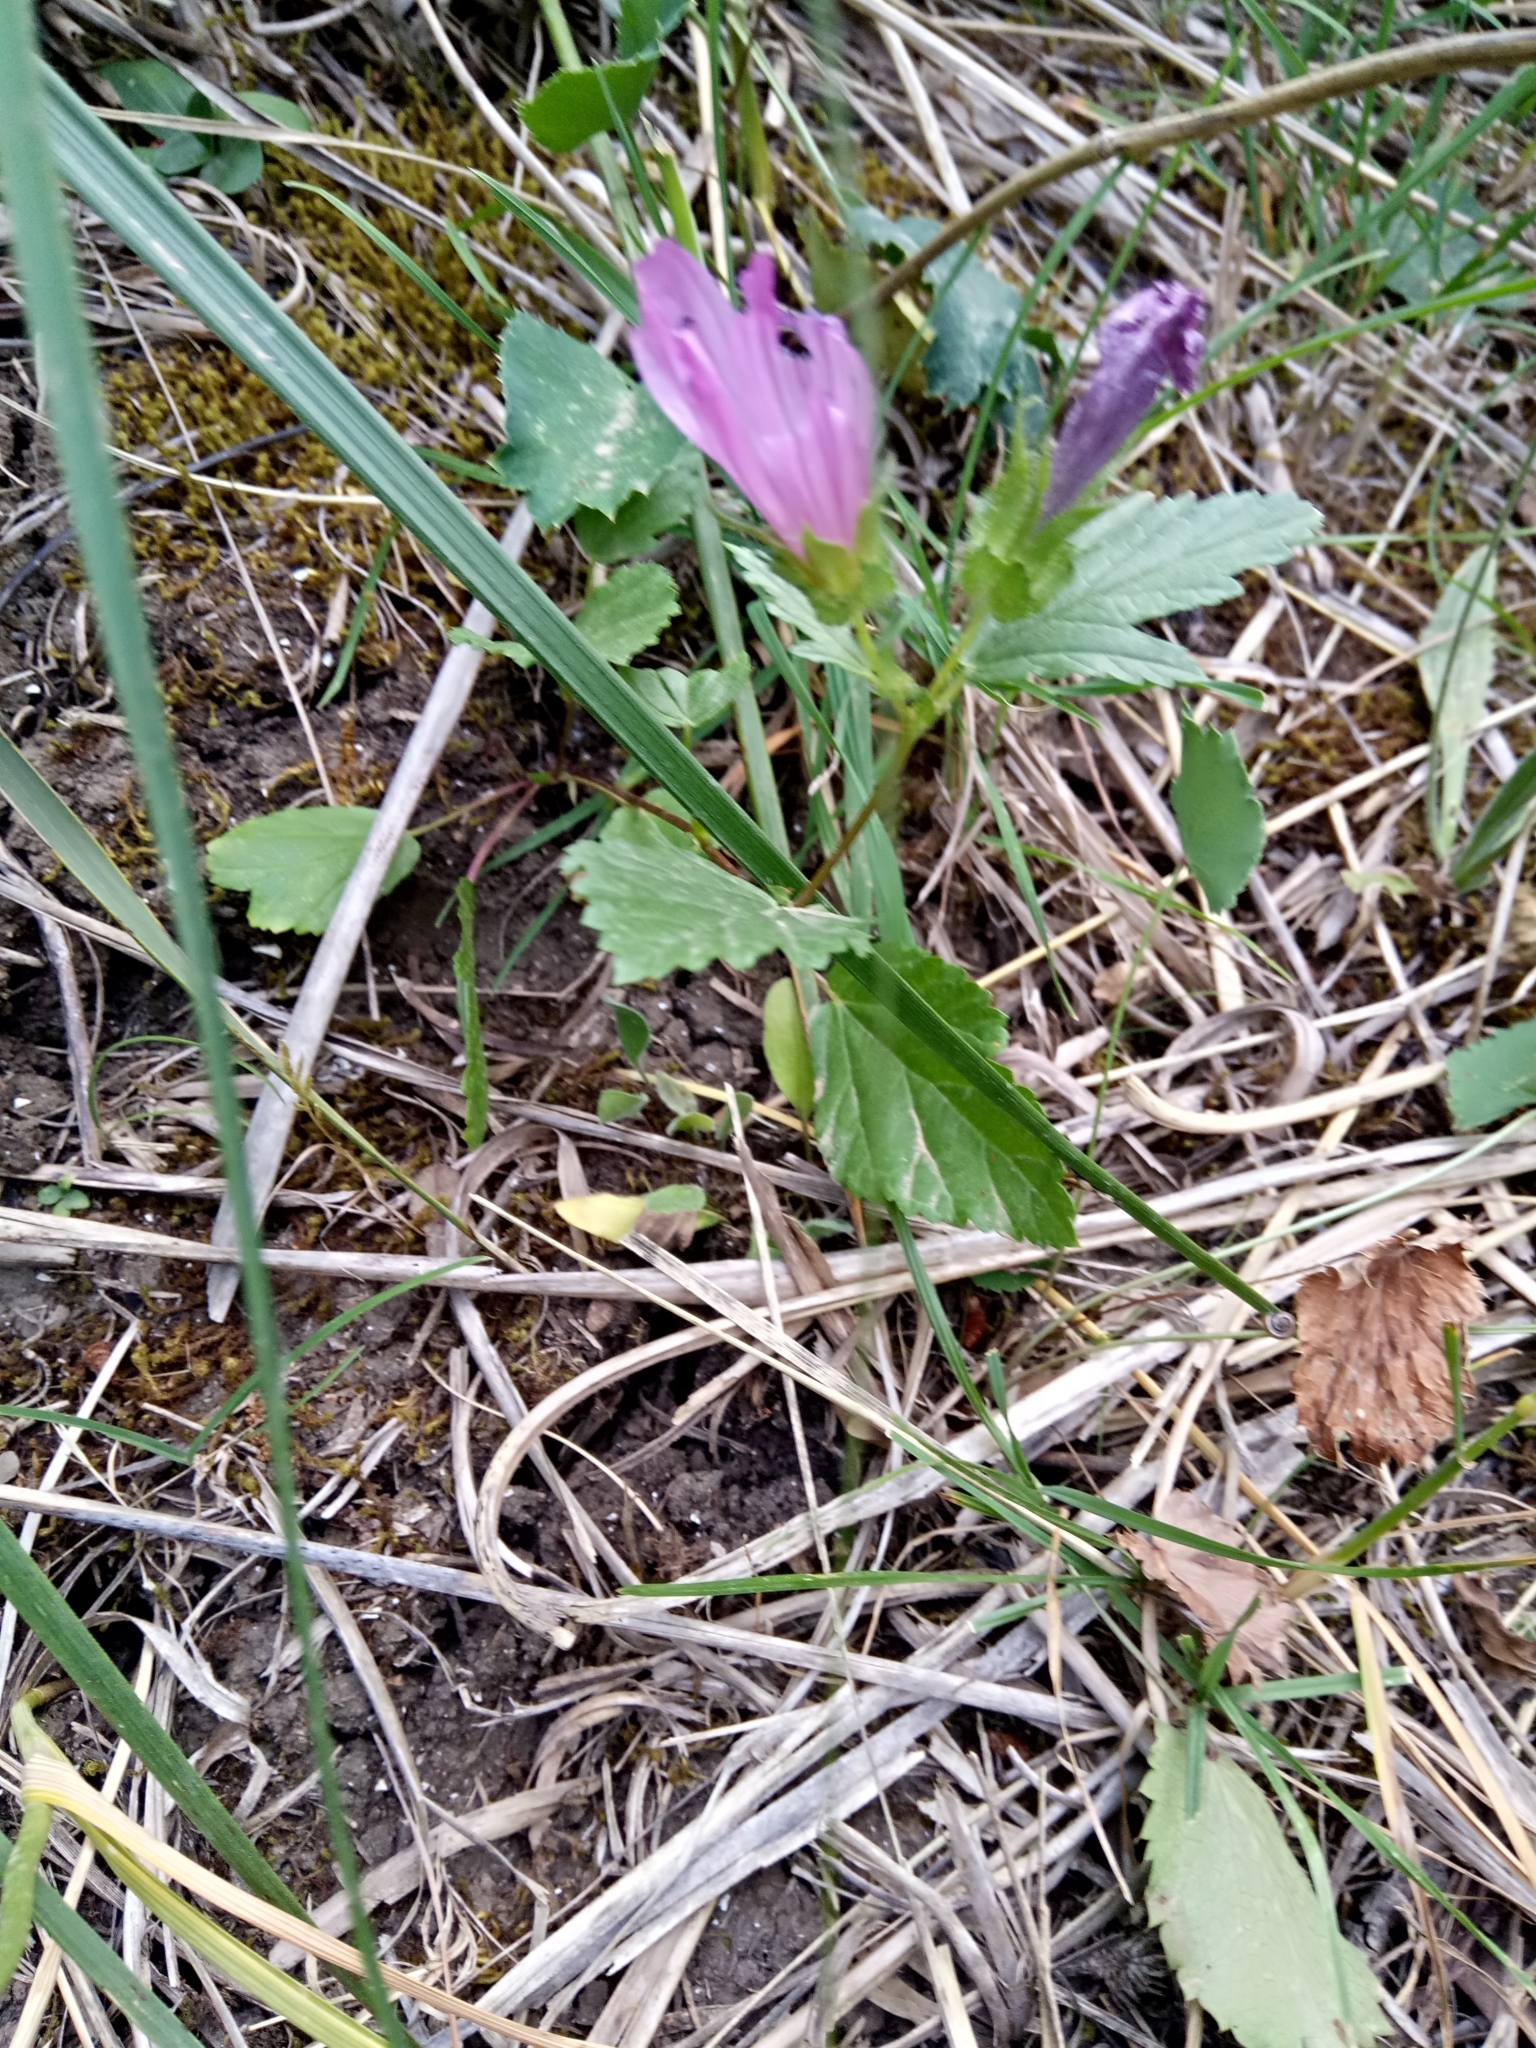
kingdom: Plantae
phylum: Tracheophyta
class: Magnoliopsida
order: Malvales
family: Malvaceae
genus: Malope
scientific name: Malope malacoides
